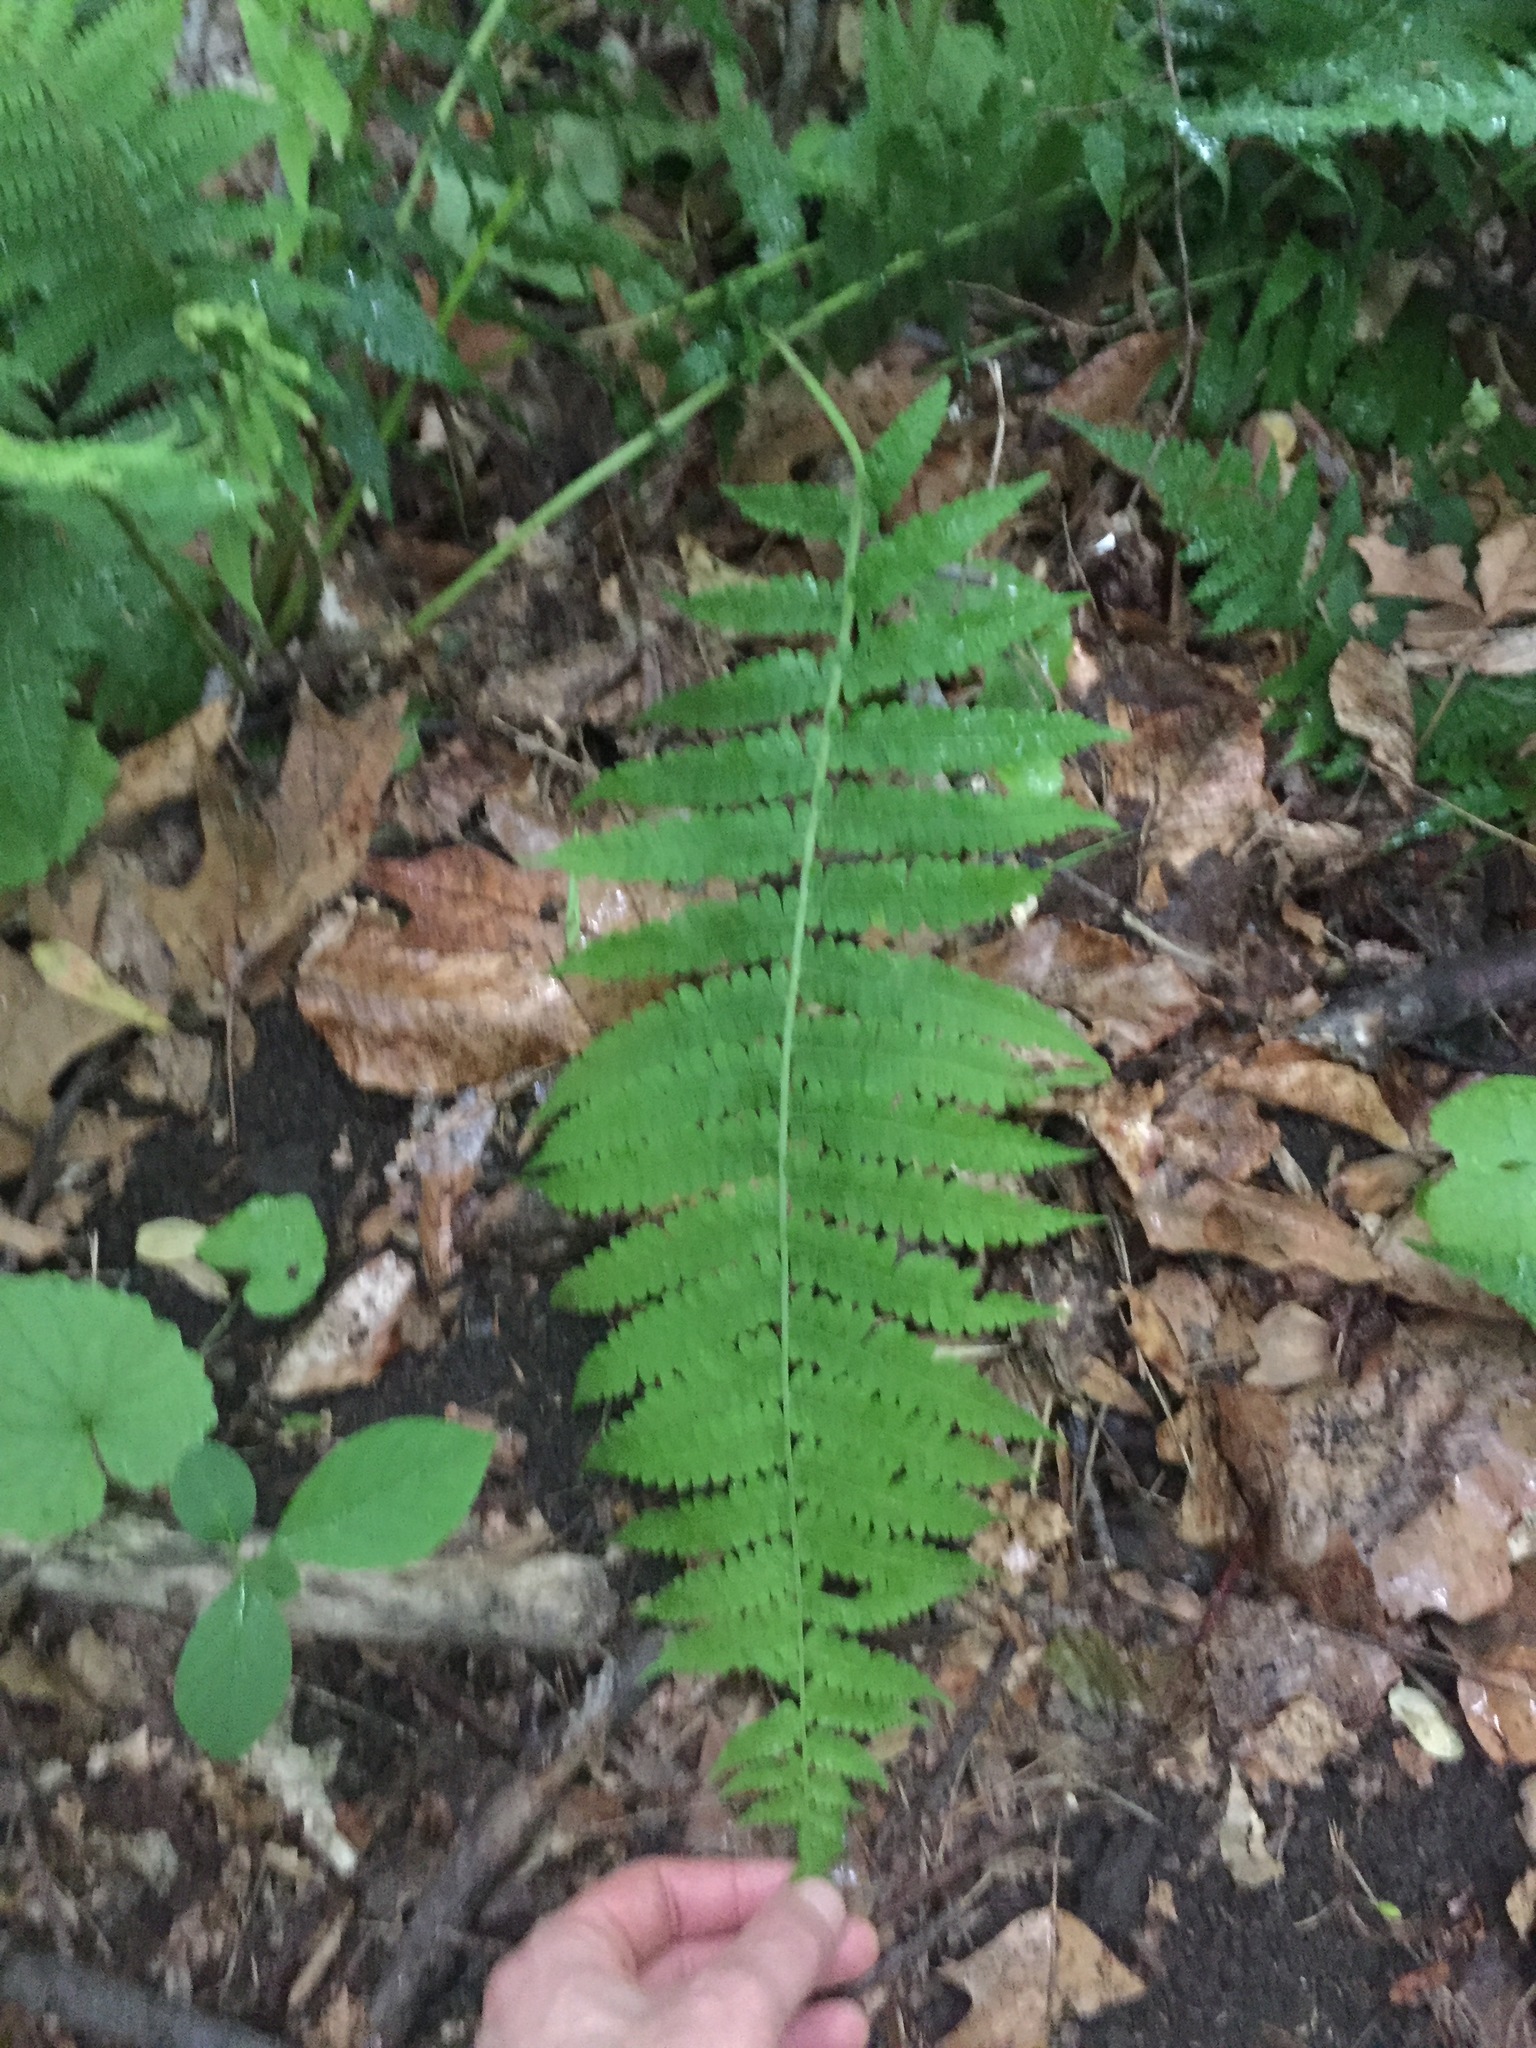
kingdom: Plantae
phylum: Tracheophyta
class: Polypodiopsida
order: Polypodiales
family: Athyriaceae
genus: Deparia
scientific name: Deparia acrostichoides
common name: Silver false spleenwort
